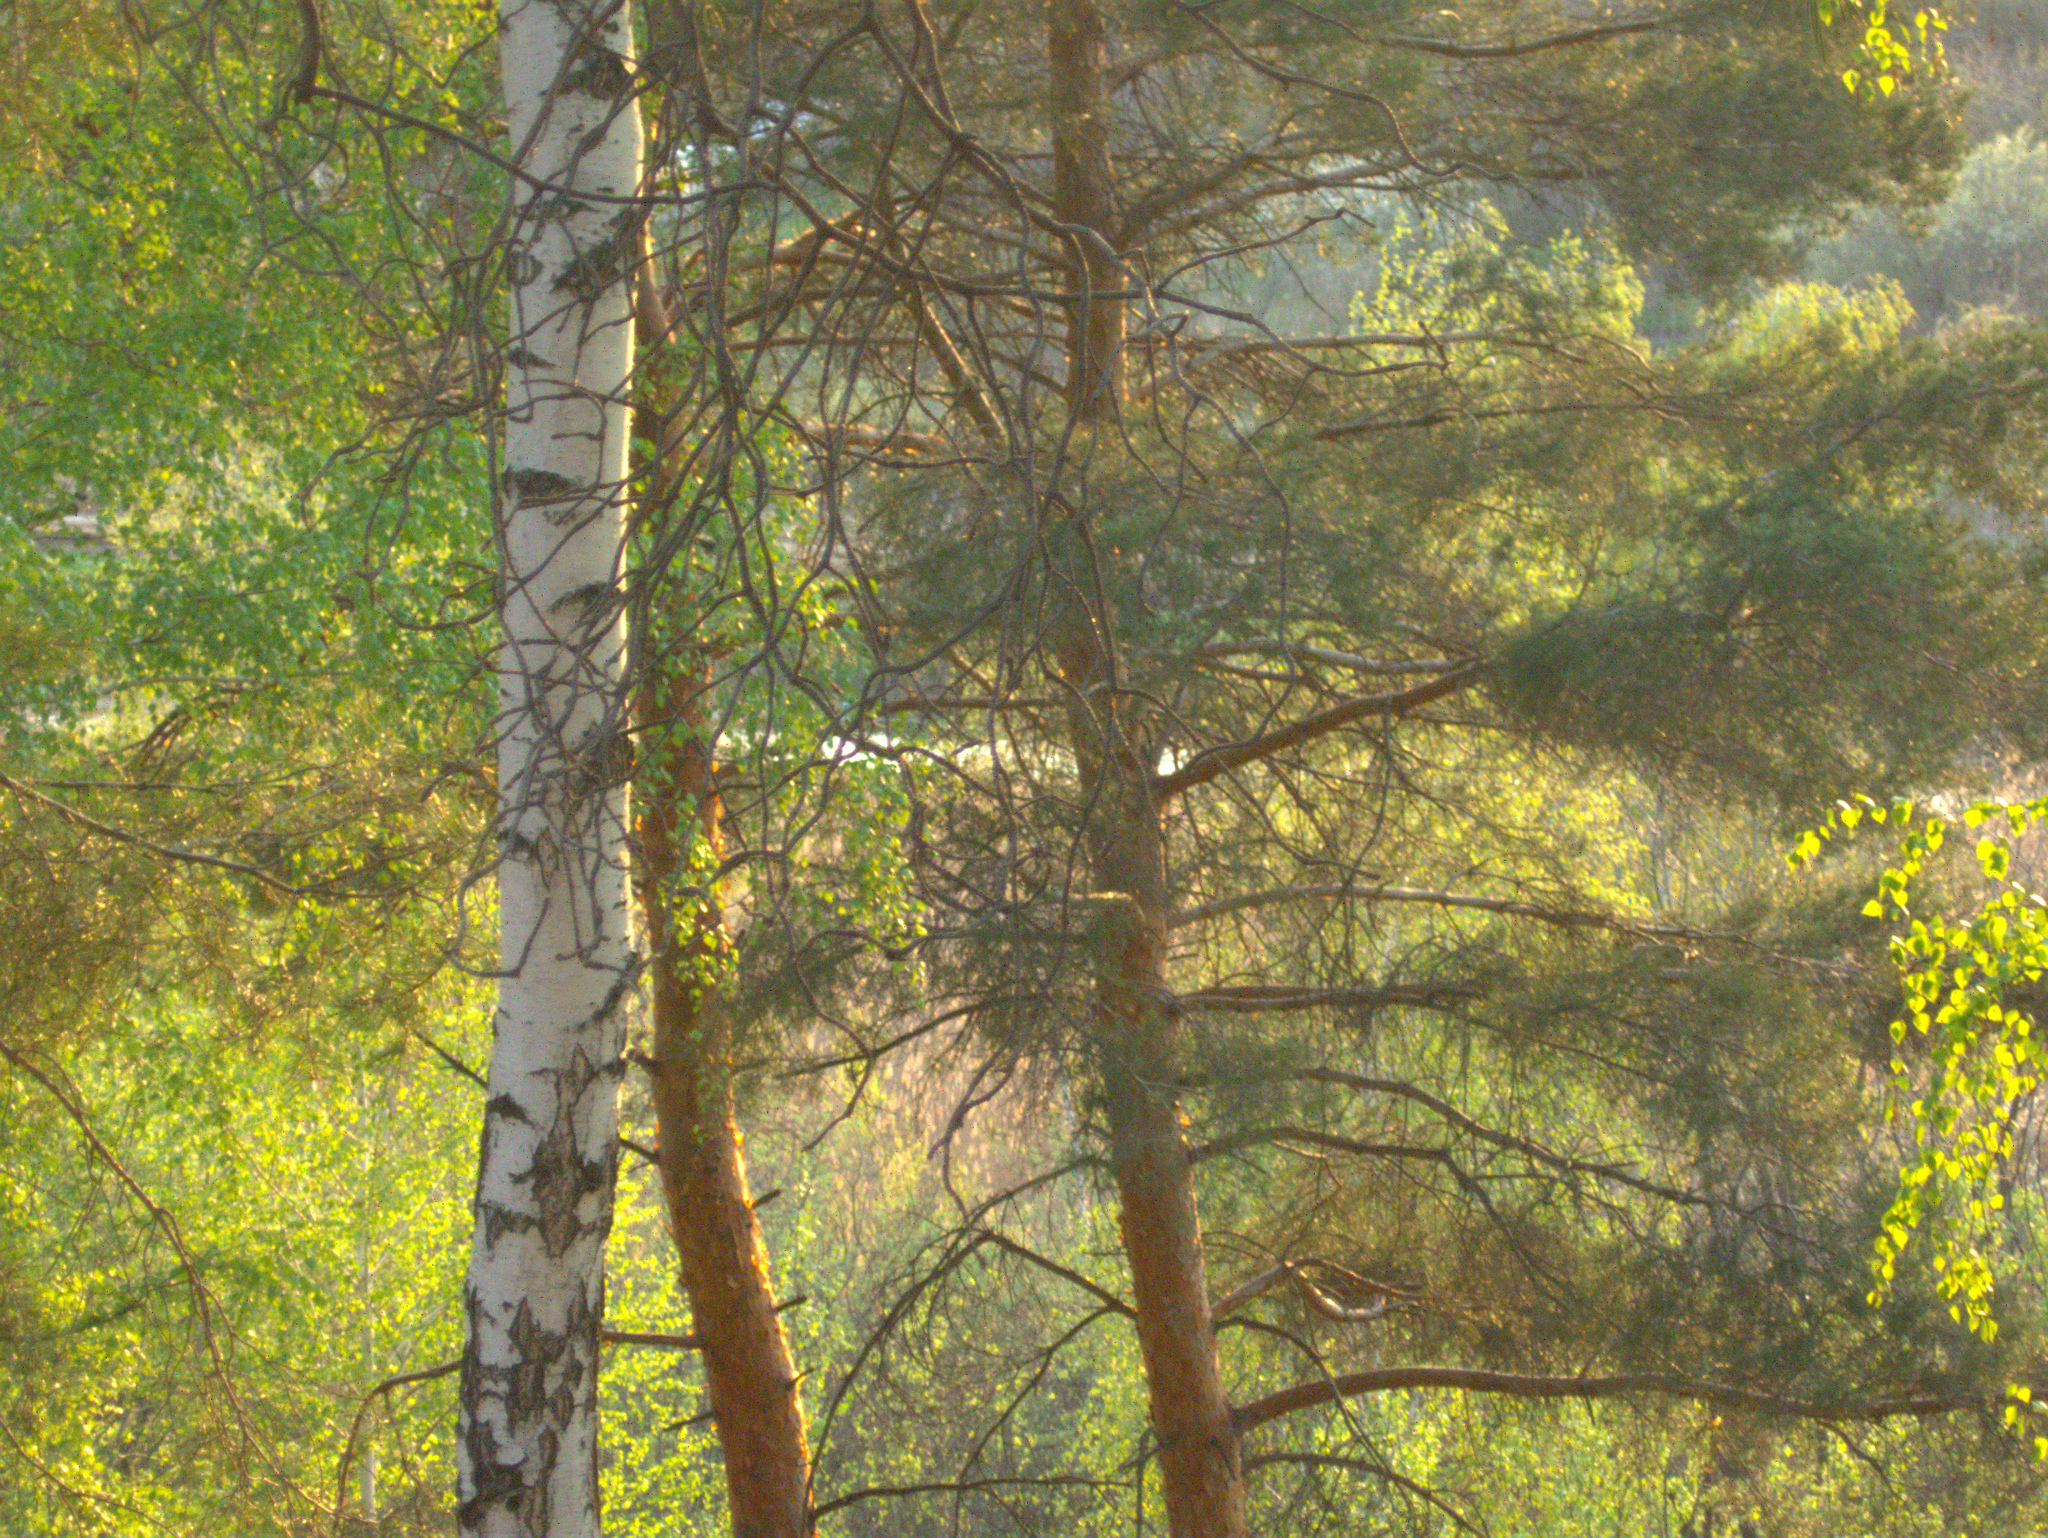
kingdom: Plantae
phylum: Tracheophyta
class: Magnoliopsida
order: Fagales
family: Betulaceae
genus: Betula
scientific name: Betula pendula
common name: Silver birch
